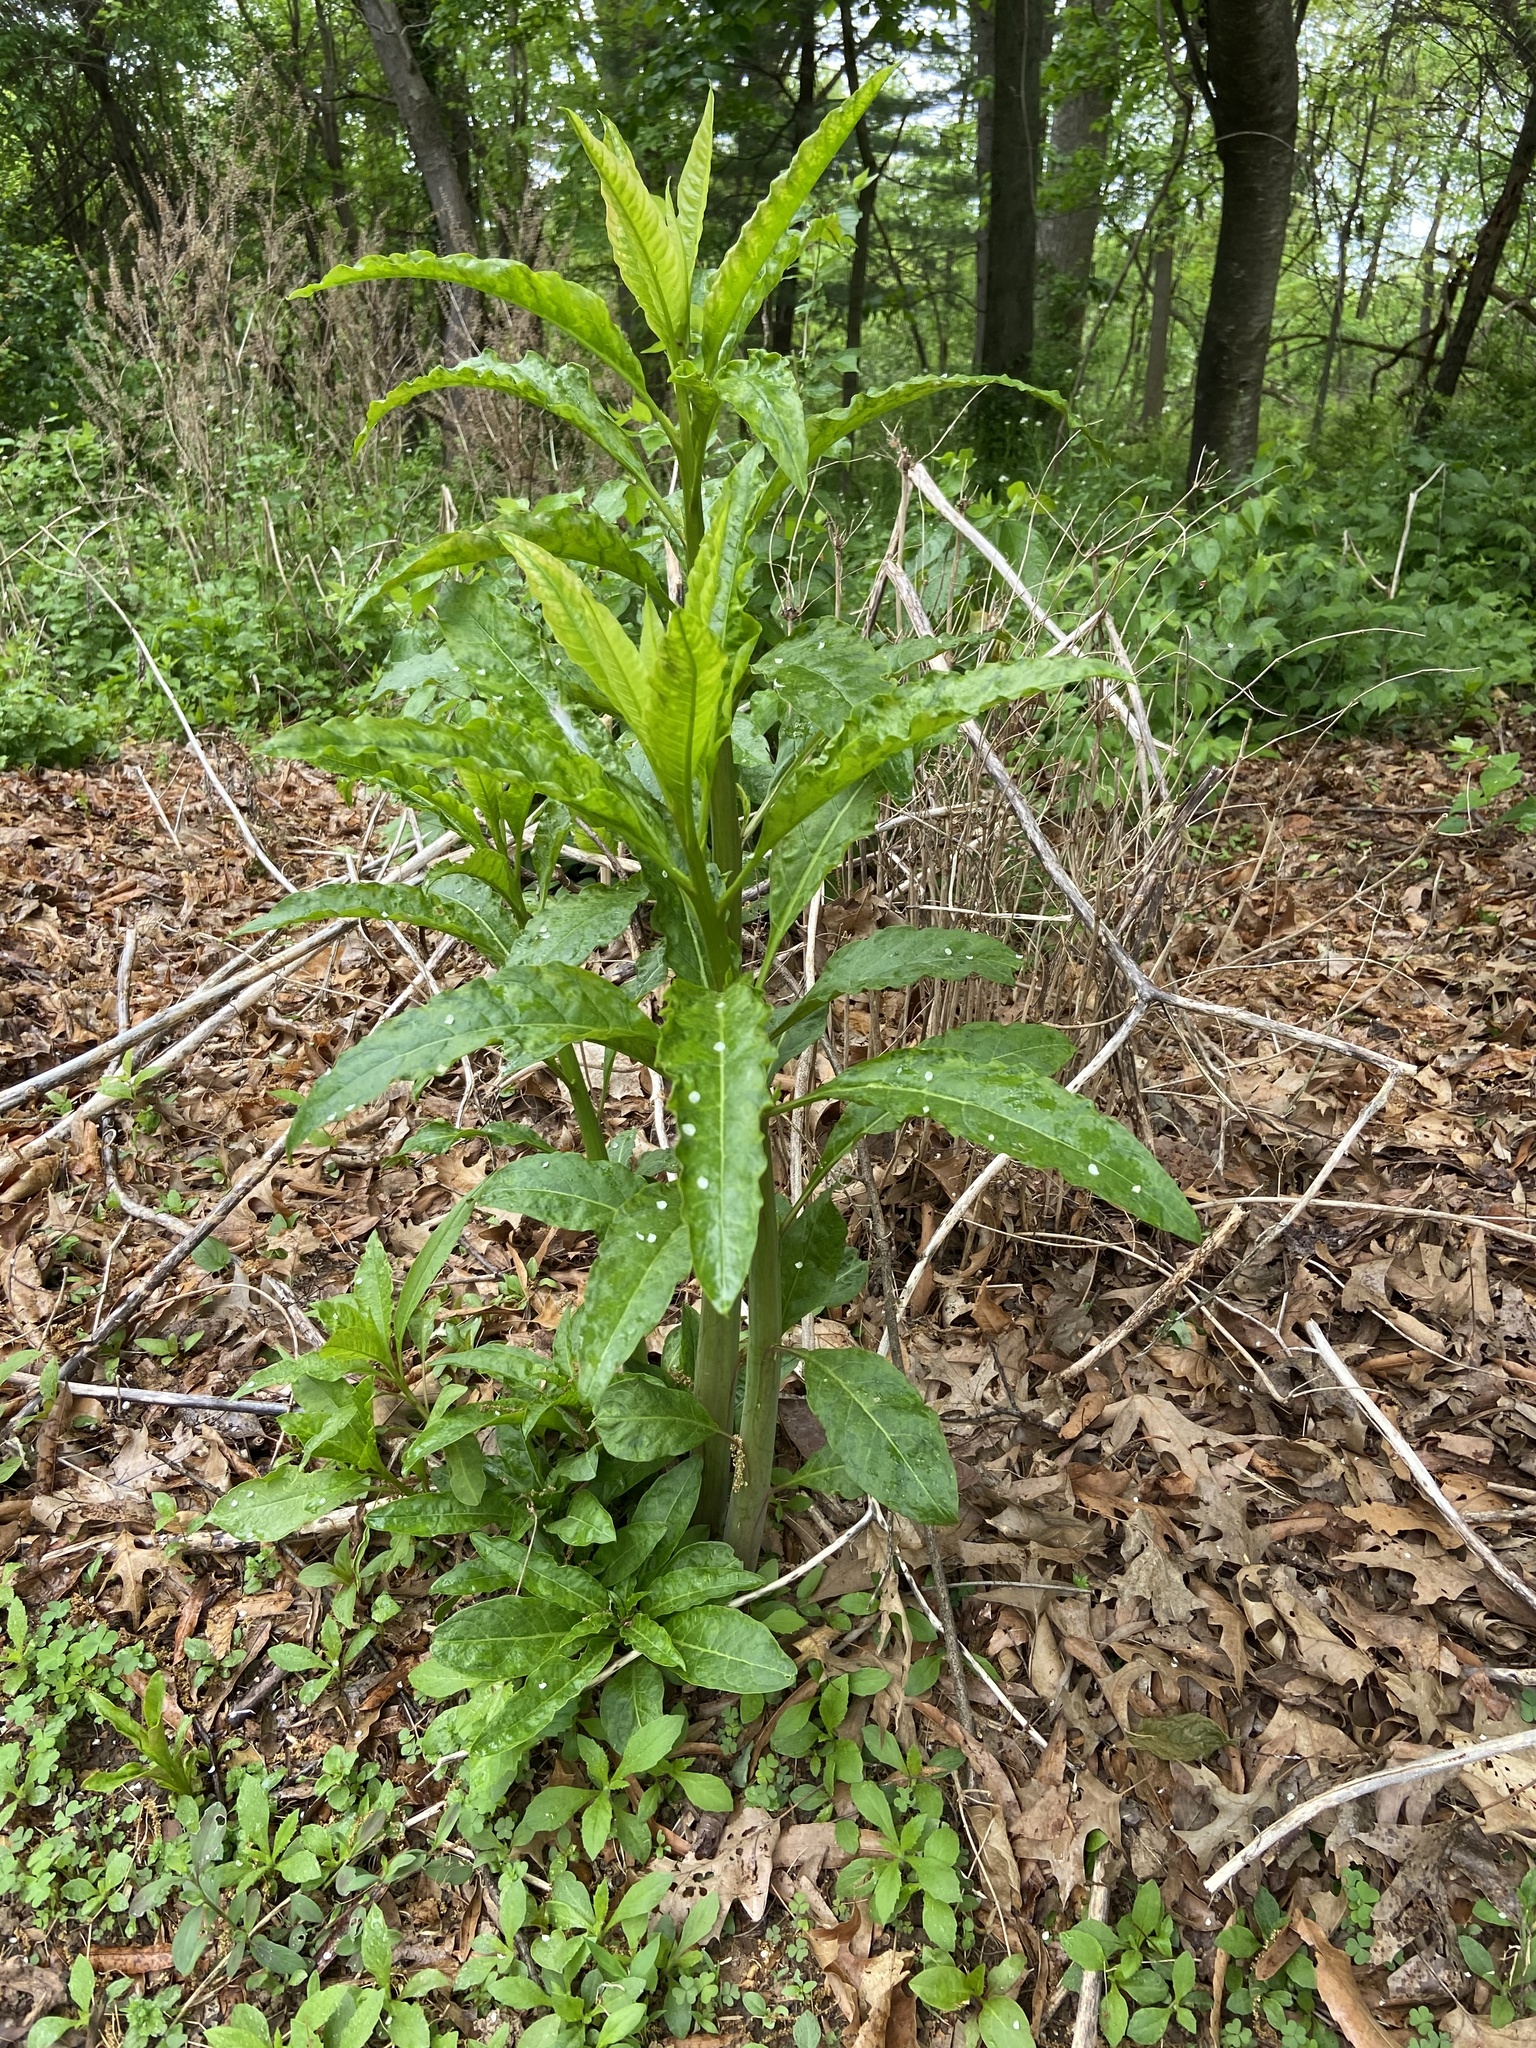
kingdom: Plantae
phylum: Tracheophyta
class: Magnoliopsida
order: Caryophyllales
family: Phytolaccaceae
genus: Phytolacca
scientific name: Phytolacca americana
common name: American pokeweed
